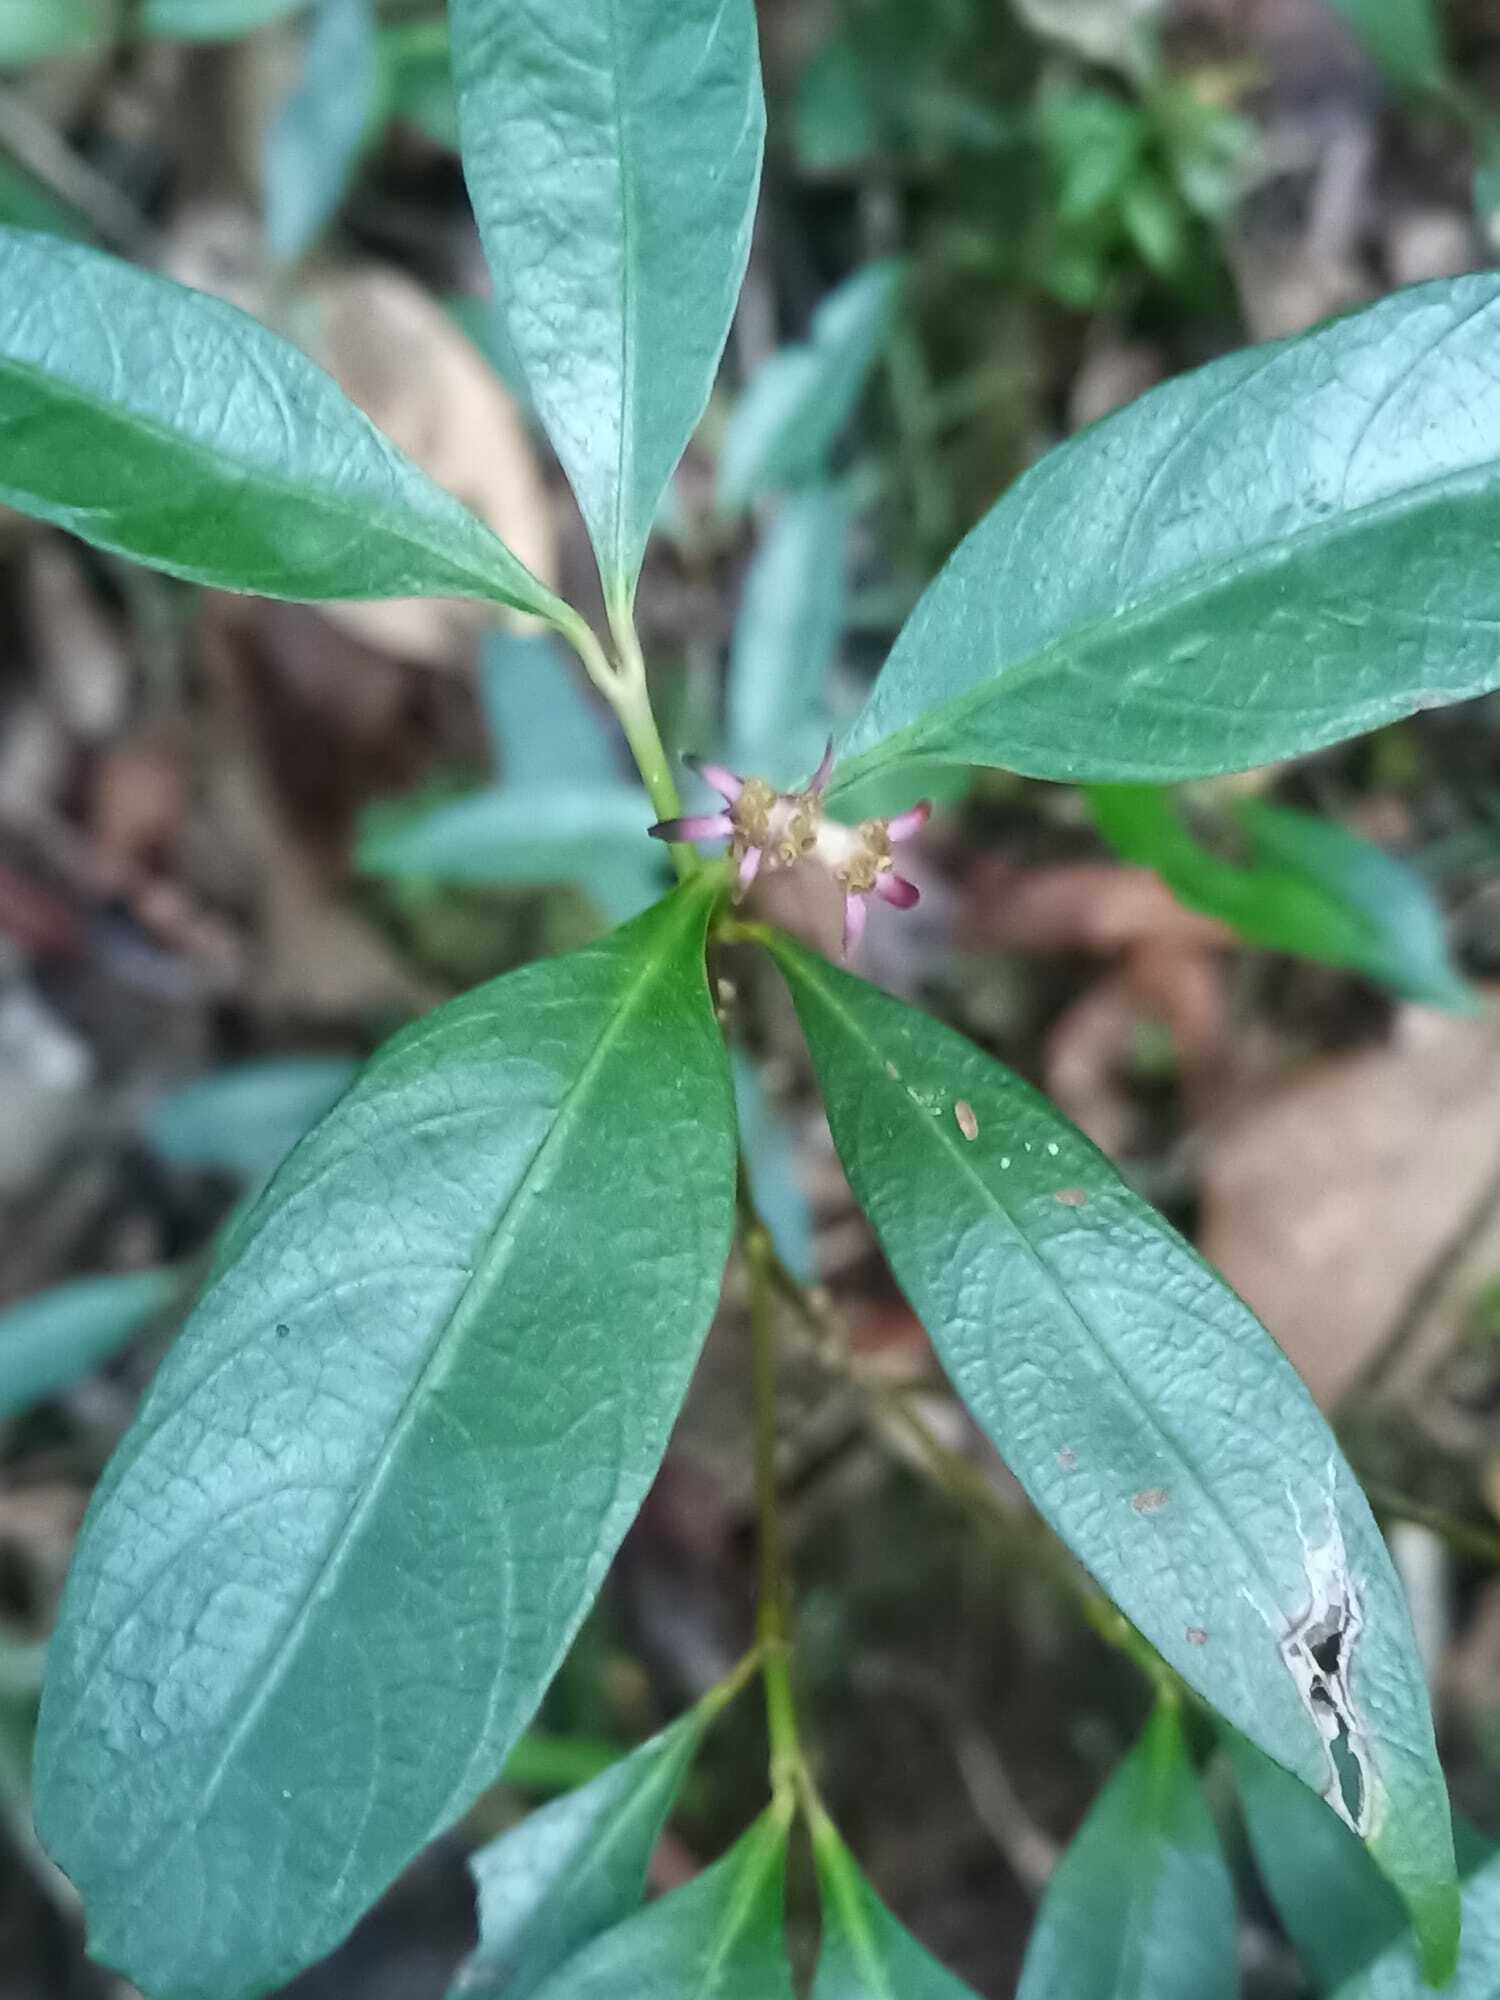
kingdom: Plantae
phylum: Tracheophyta
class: Magnoliopsida
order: Gentianales
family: Rubiaceae
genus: Palicourea
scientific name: Palicourea hoffmannseggiana
